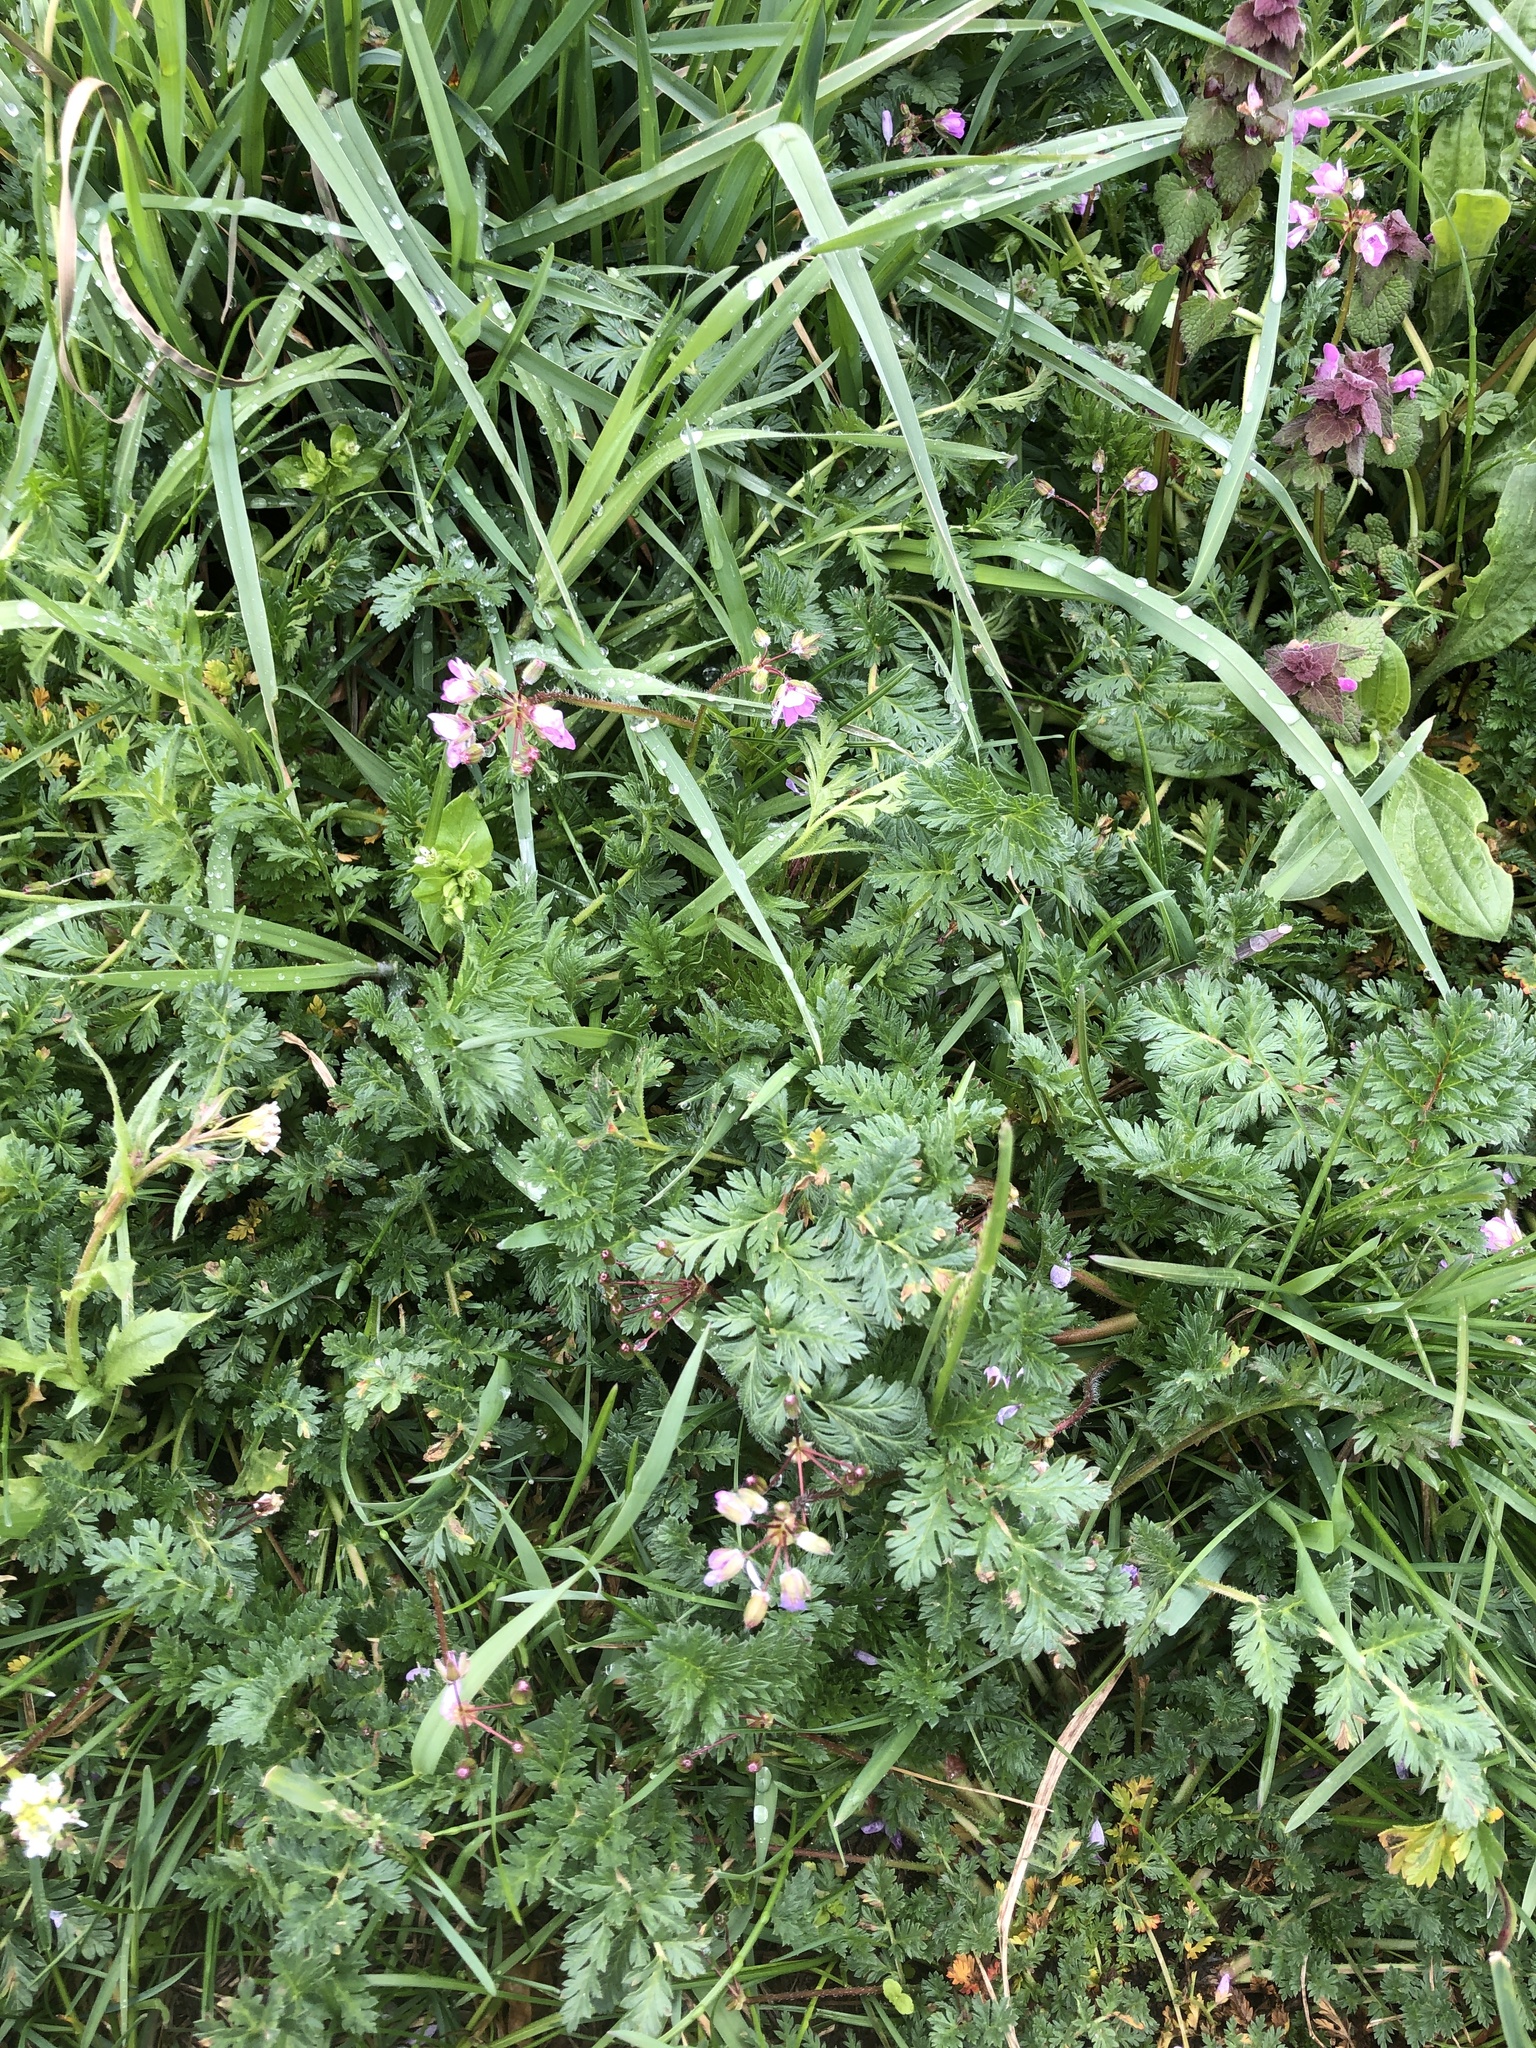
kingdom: Plantae
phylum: Tracheophyta
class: Magnoliopsida
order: Geraniales
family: Geraniaceae
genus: Erodium
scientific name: Erodium cicutarium
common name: Common stork's-bill
